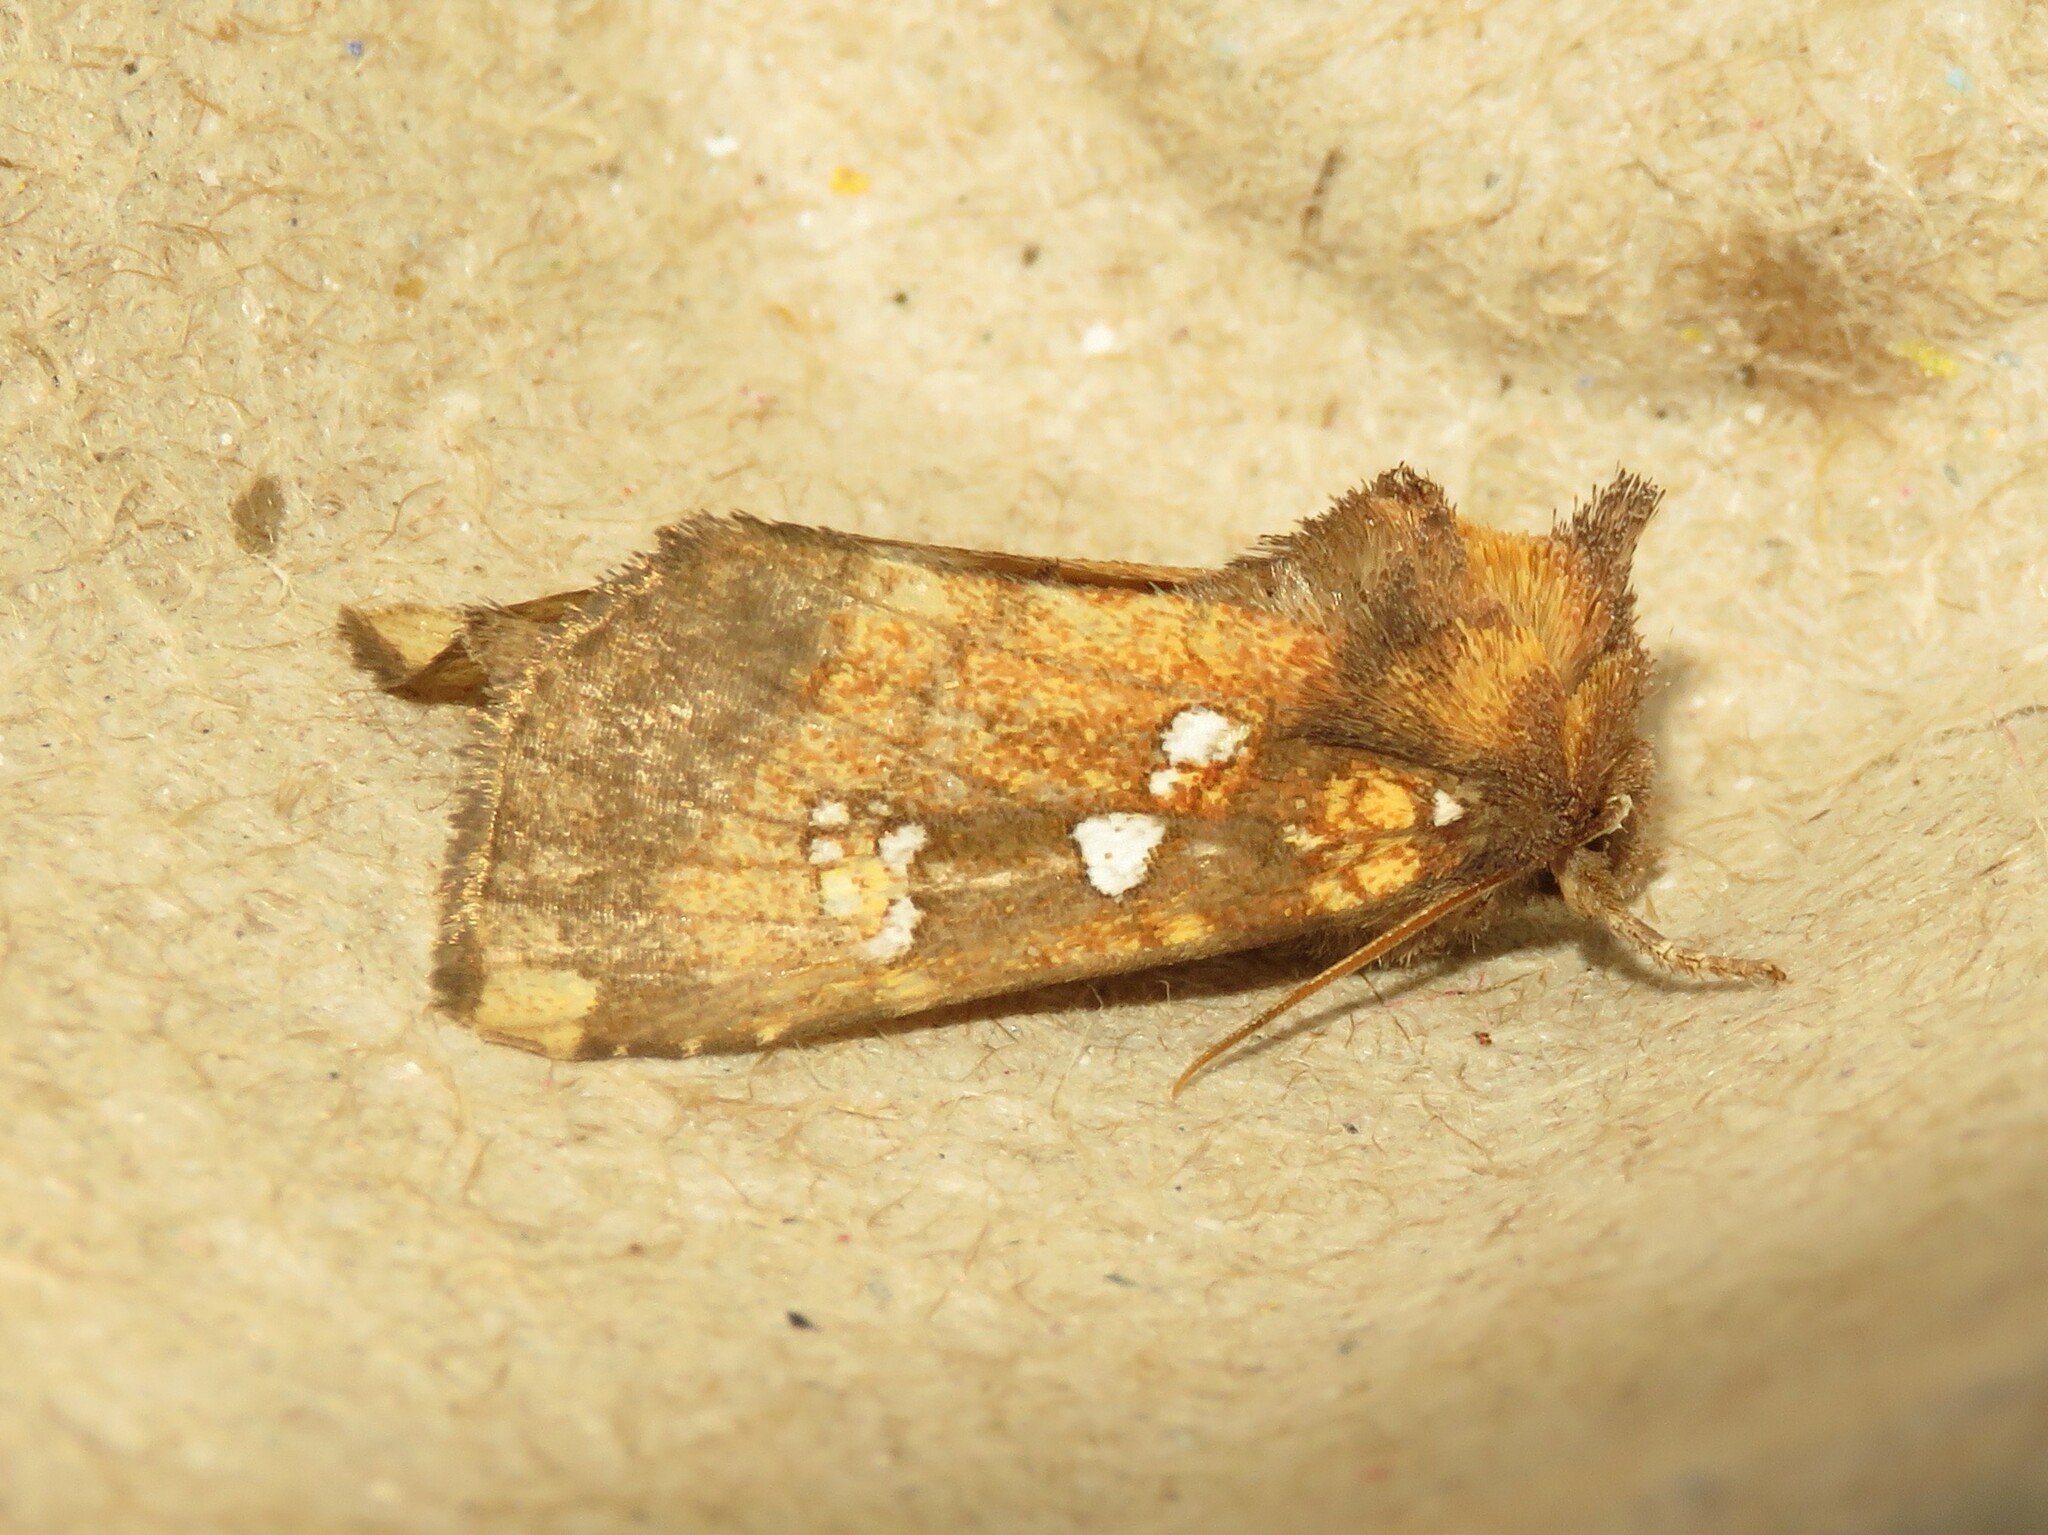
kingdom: Animalia
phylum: Arthropoda
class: Insecta
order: Lepidoptera
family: Noctuidae
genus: Papaipema
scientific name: Papaipema arctivorens
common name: Northern burdock borer moth
